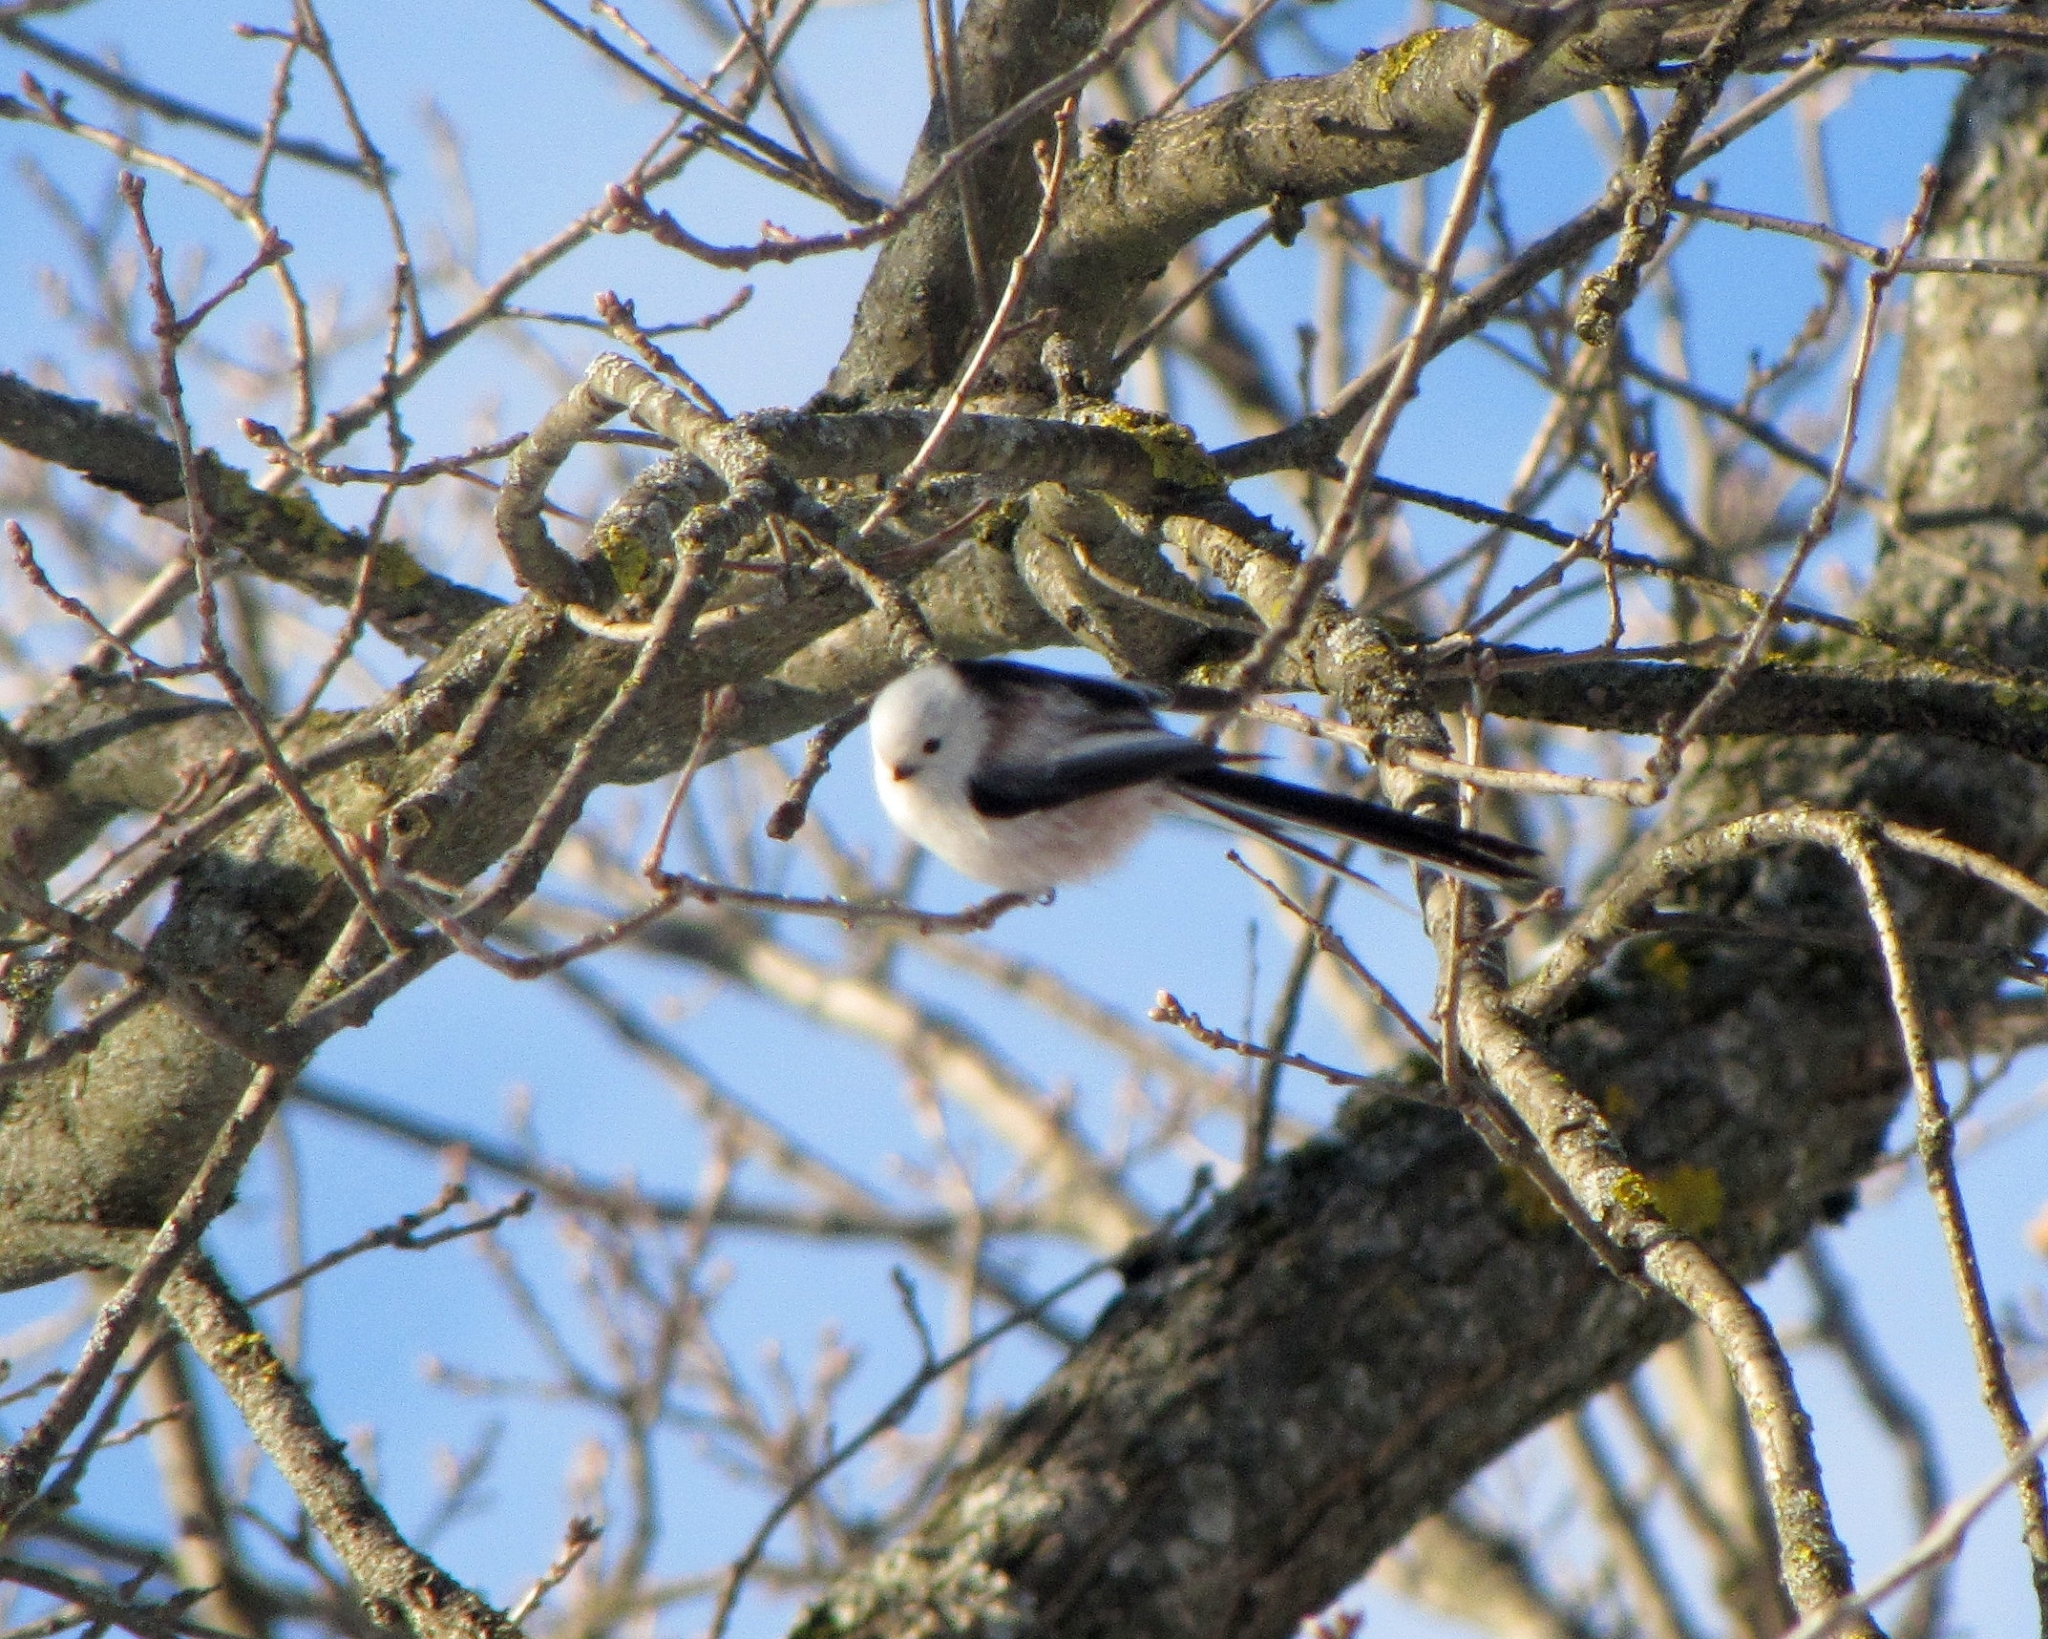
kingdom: Animalia
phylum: Chordata
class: Aves
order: Passeriformes
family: Aegithalidae
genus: Aegithalos
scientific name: Aegithalos caudatus
